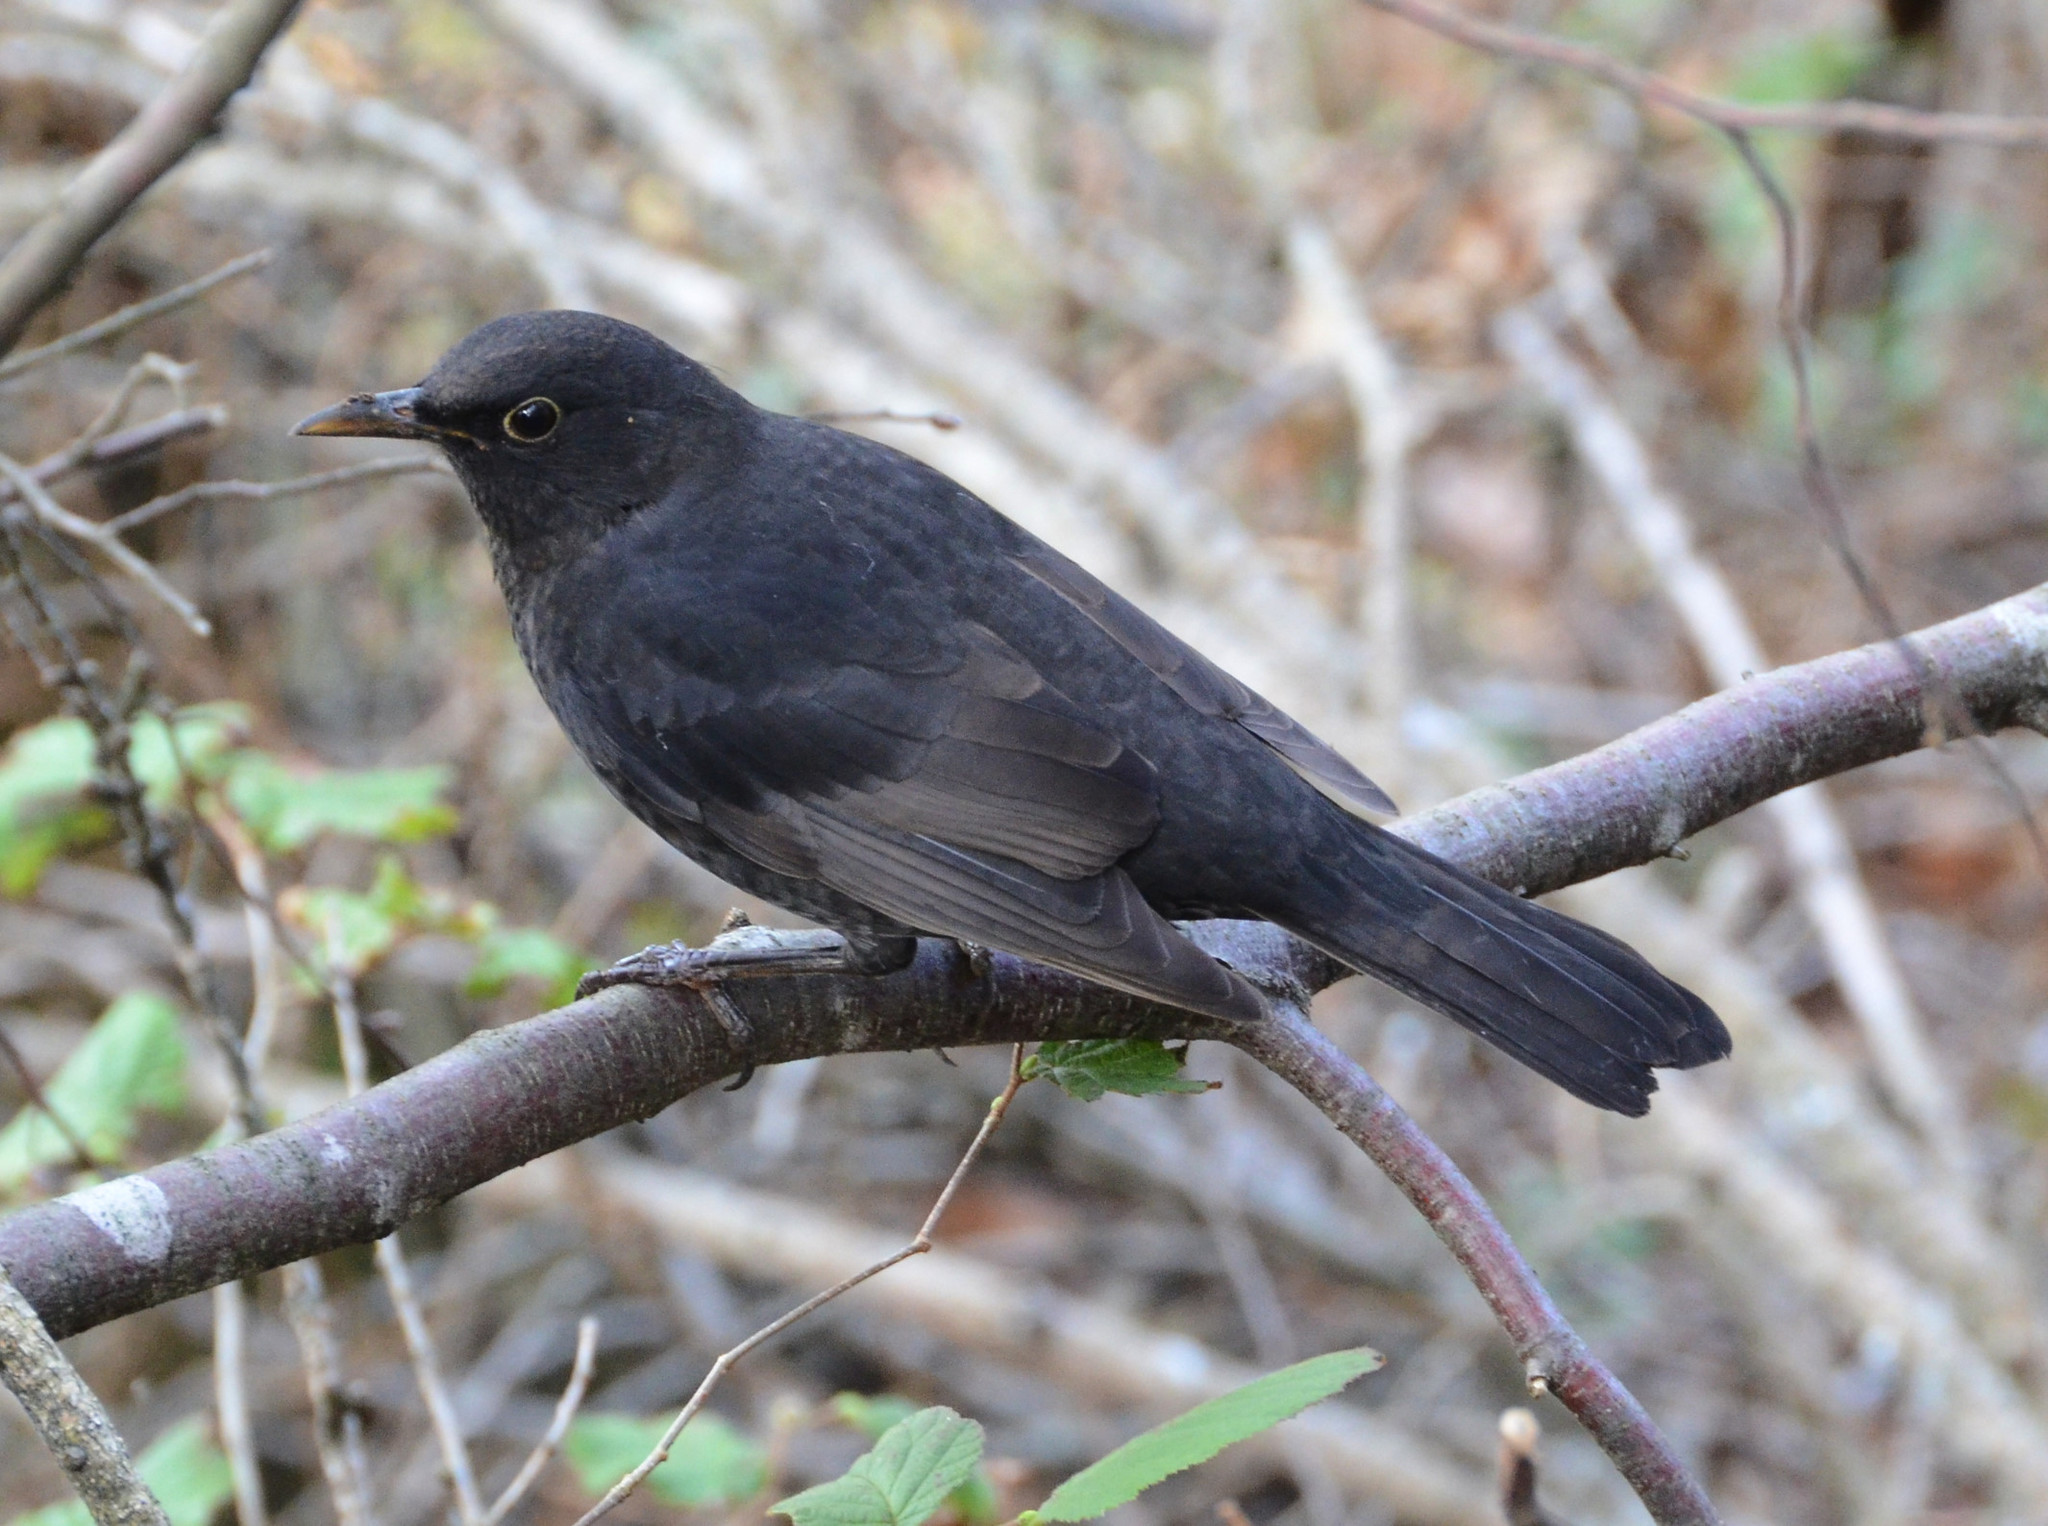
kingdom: Animalia
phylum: Chordata
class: Aves
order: Passeriformes
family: Turdidae
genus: Turdus
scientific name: Turdus merula
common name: Common blackbird
